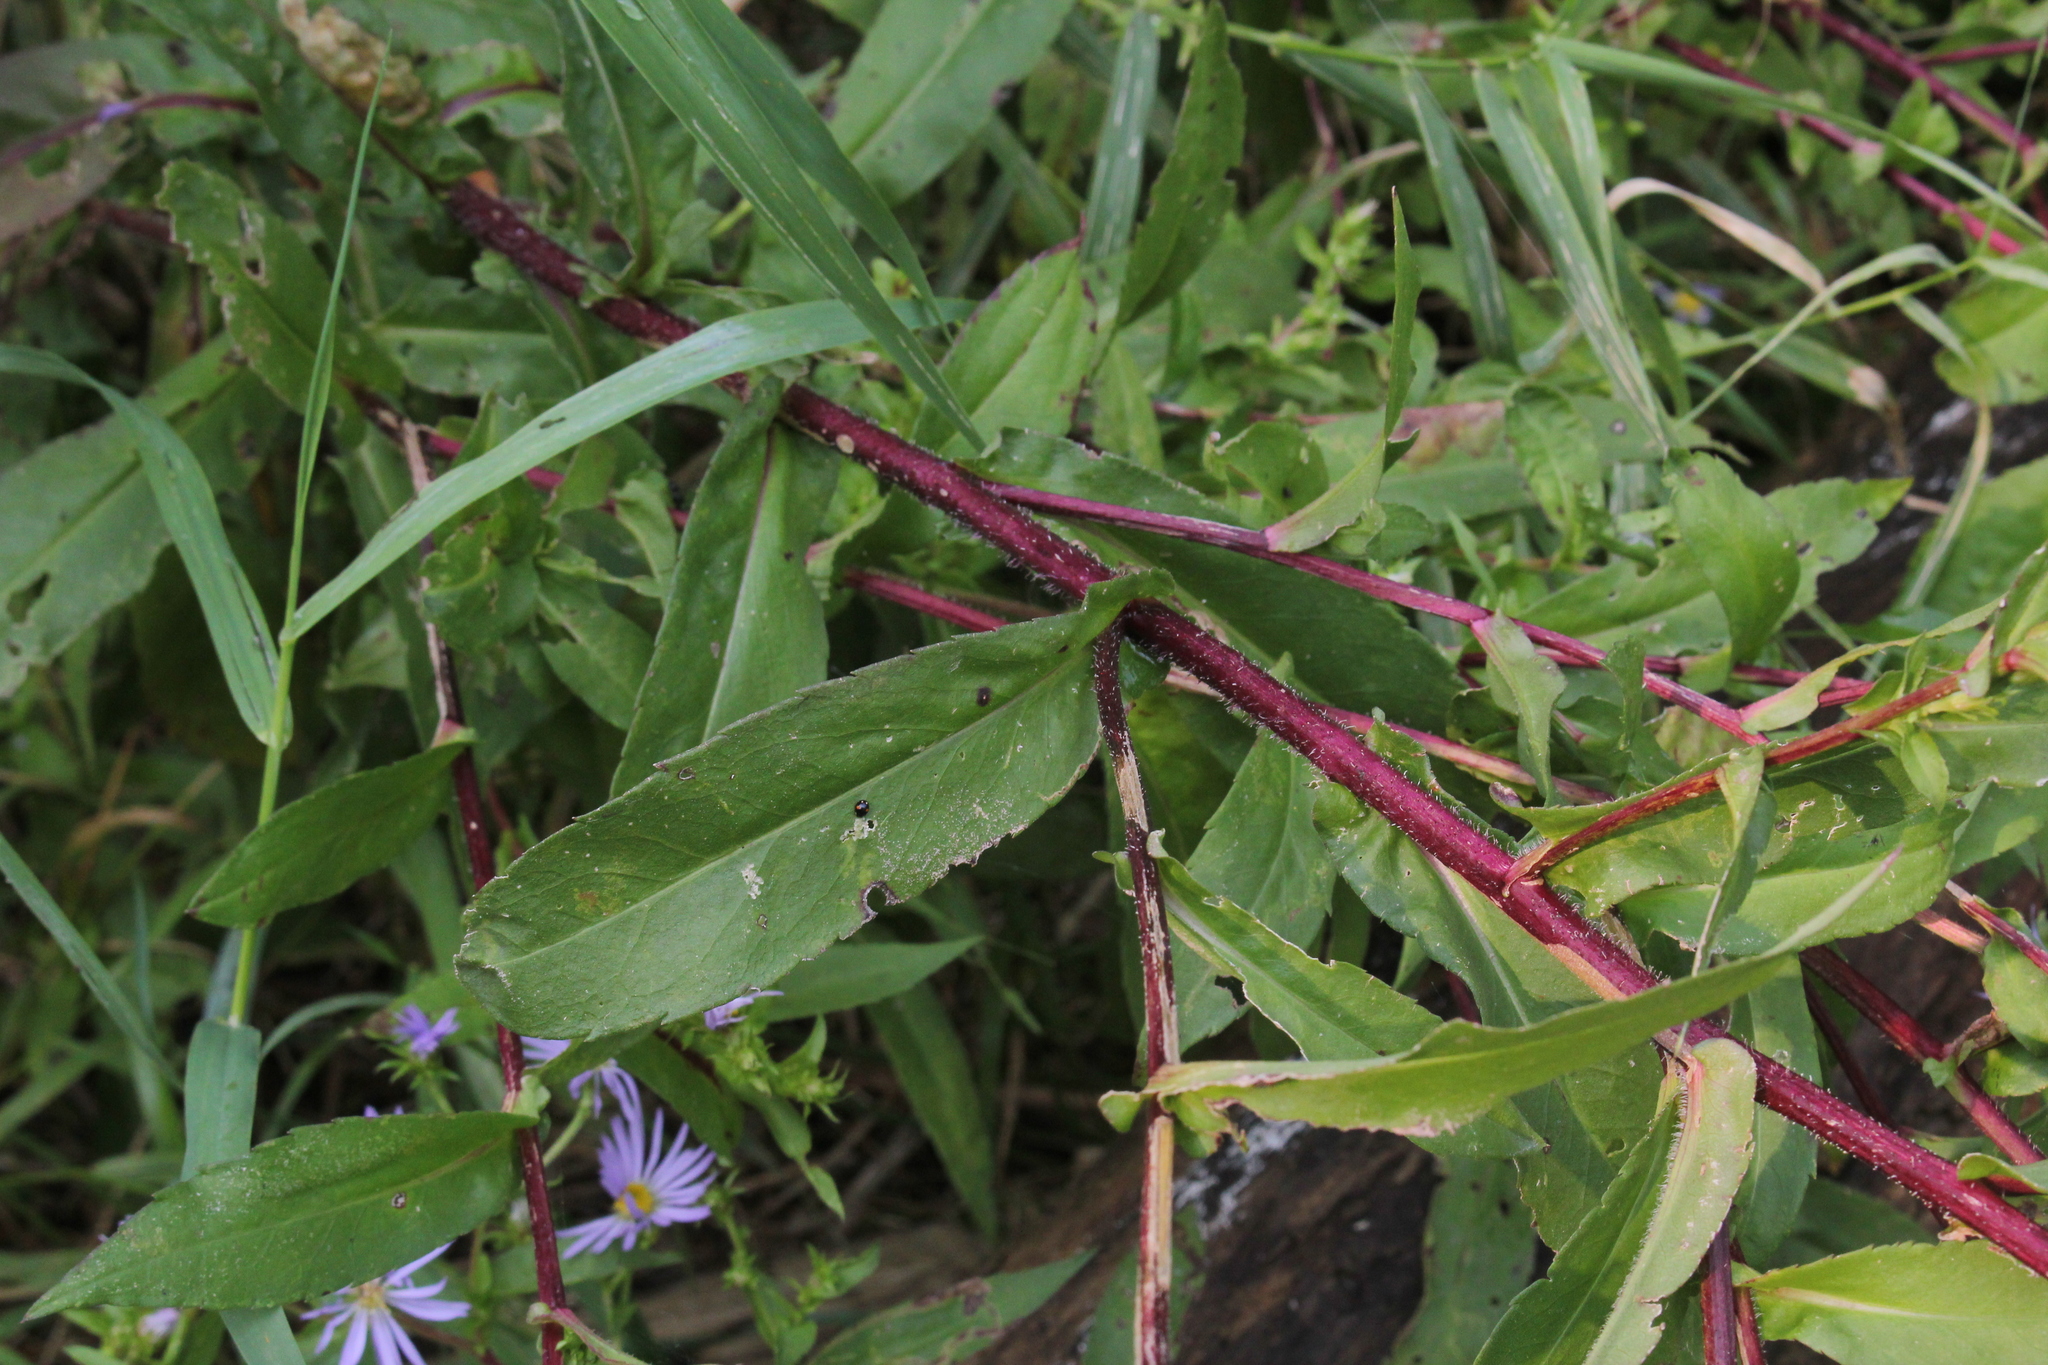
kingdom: Plantae
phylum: Tracheophyta
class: Magnoliopsida
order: Asterales
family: Asteraceae
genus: Symphyotrichum
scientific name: Symphyotrichum puniceum
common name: Bog aster
